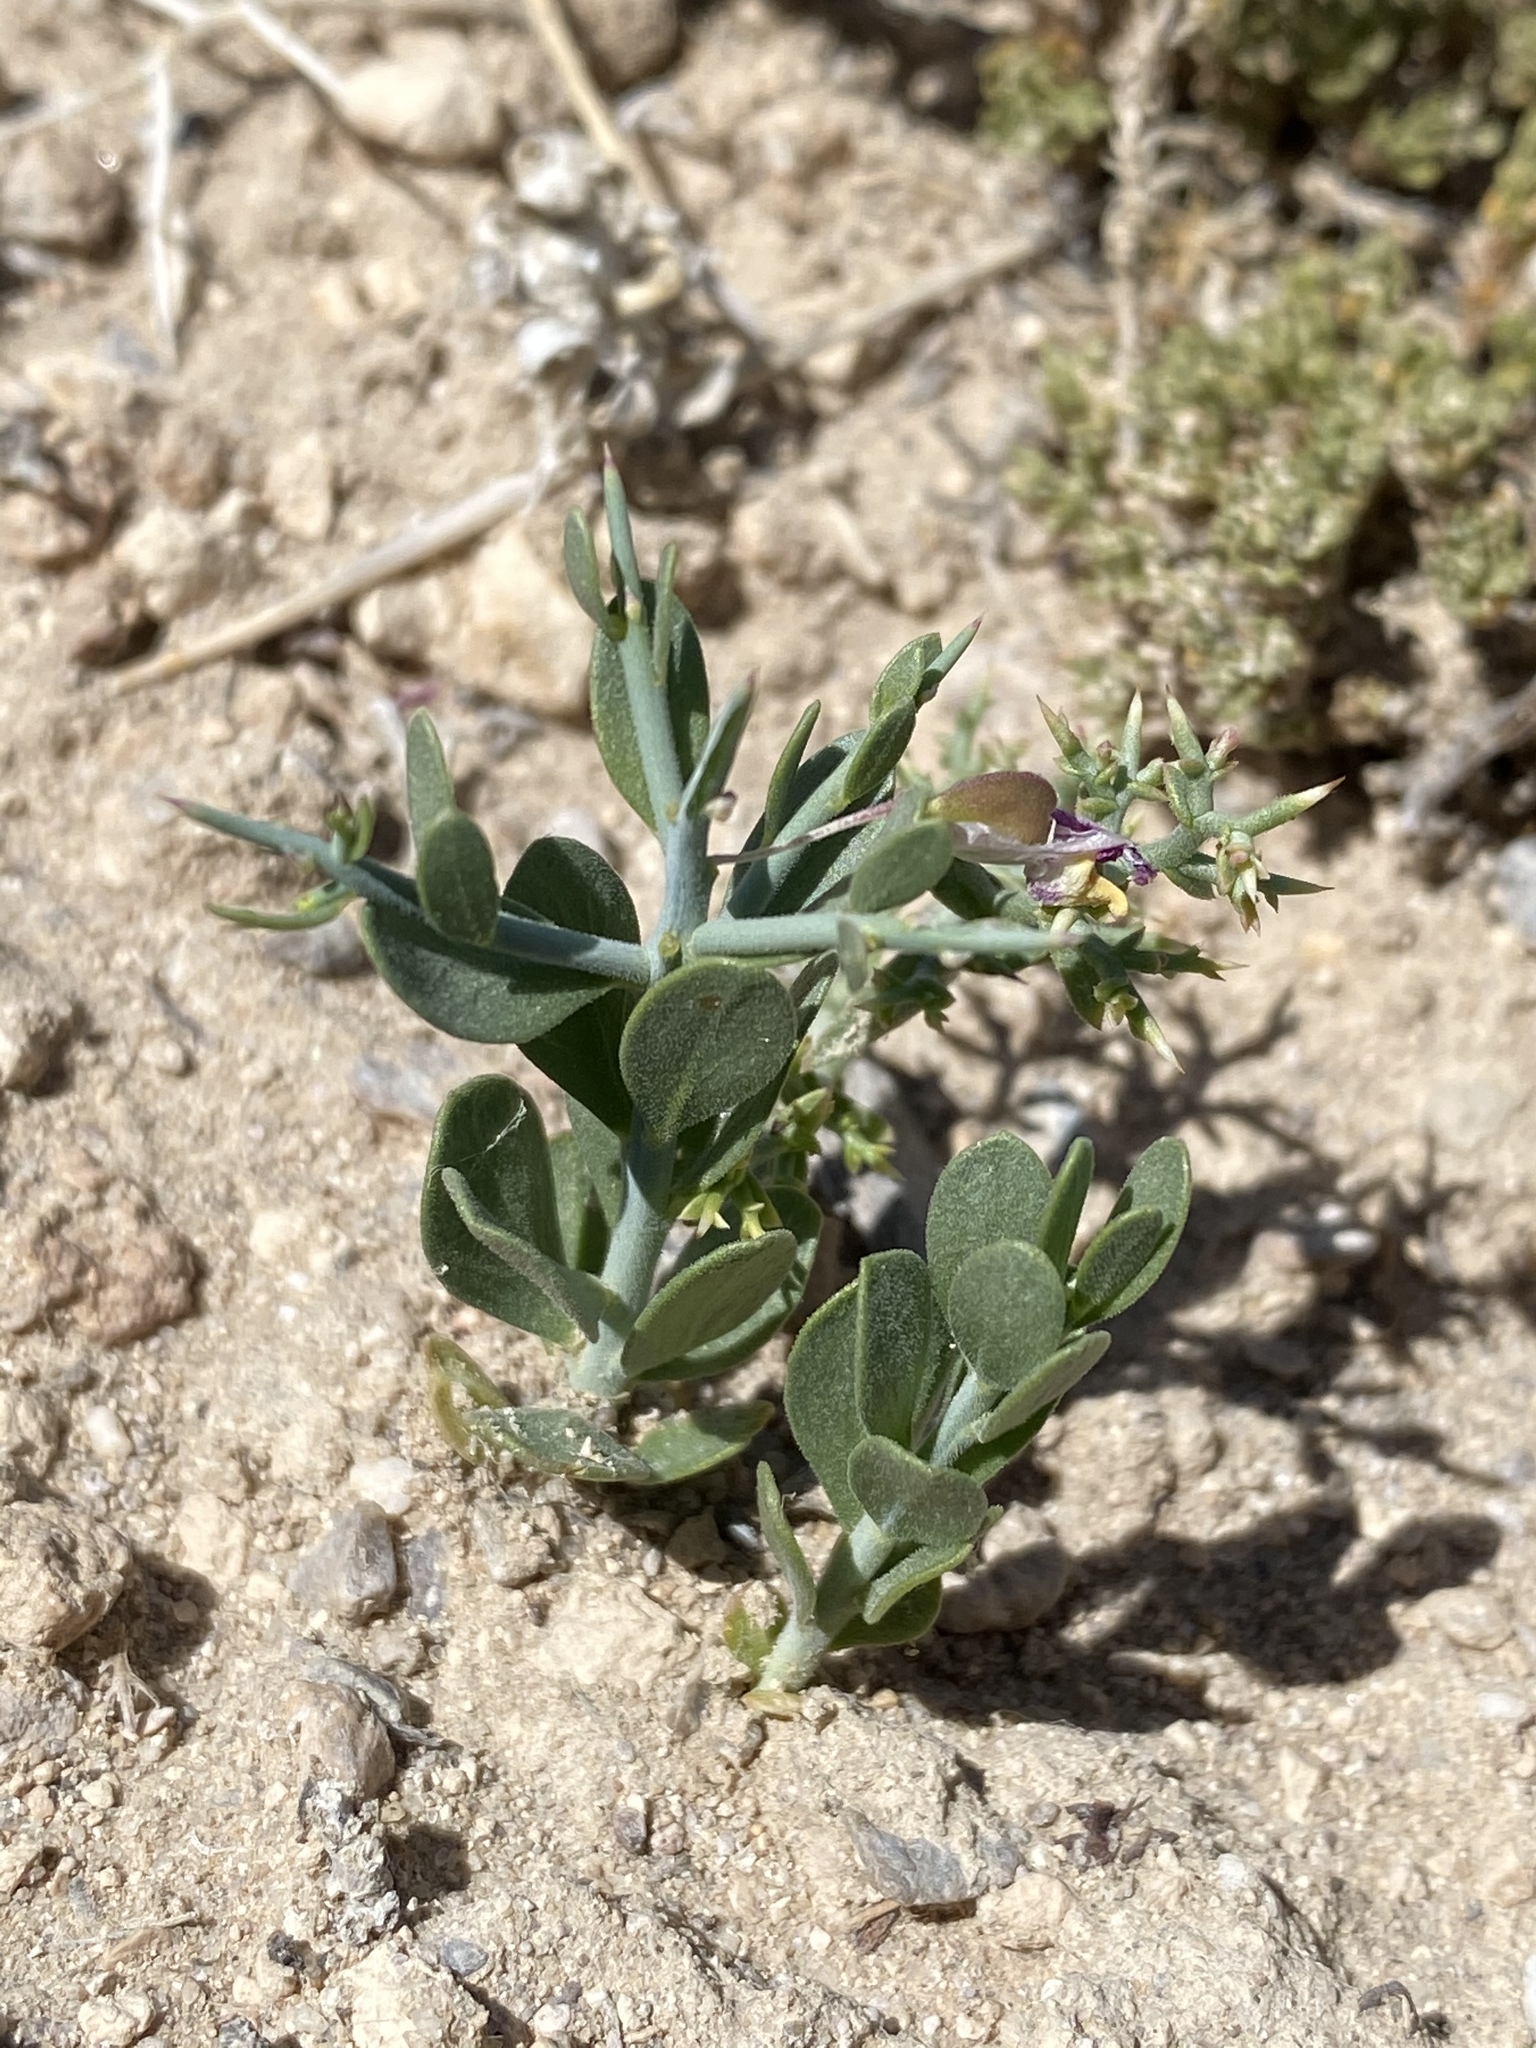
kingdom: Plantae
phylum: Tracheophyta
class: Magnoliopsida
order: Fabales
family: Polygalaceae
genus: Rhinotropis
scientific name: Rhinotropis subspinosa
